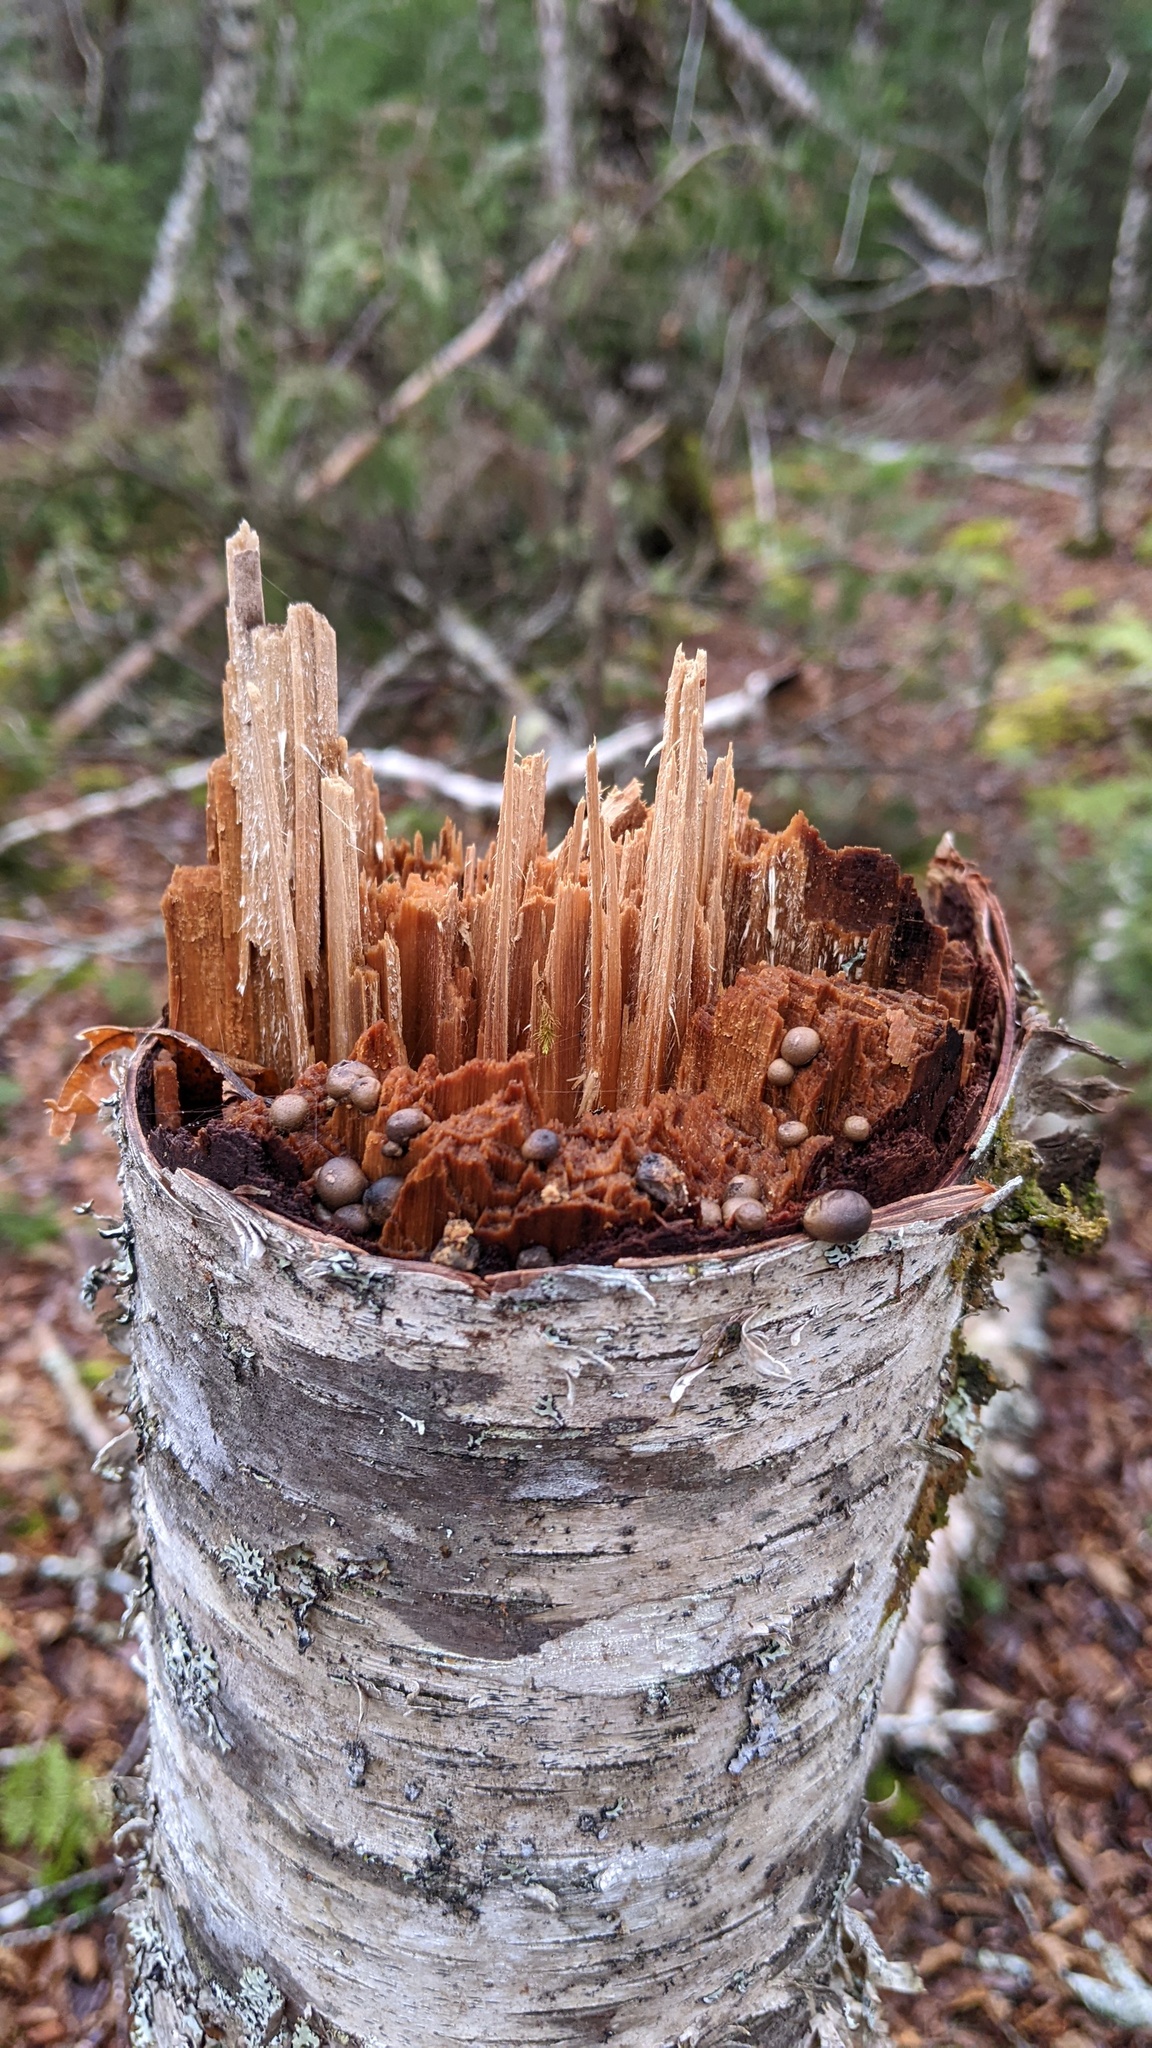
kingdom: Protozoa
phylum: Mycetozoa
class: Myxomycetes
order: Cribrariales
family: Tubiferaceae
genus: Lycogala
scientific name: Lycogala epidendrum
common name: Wolf's milk
